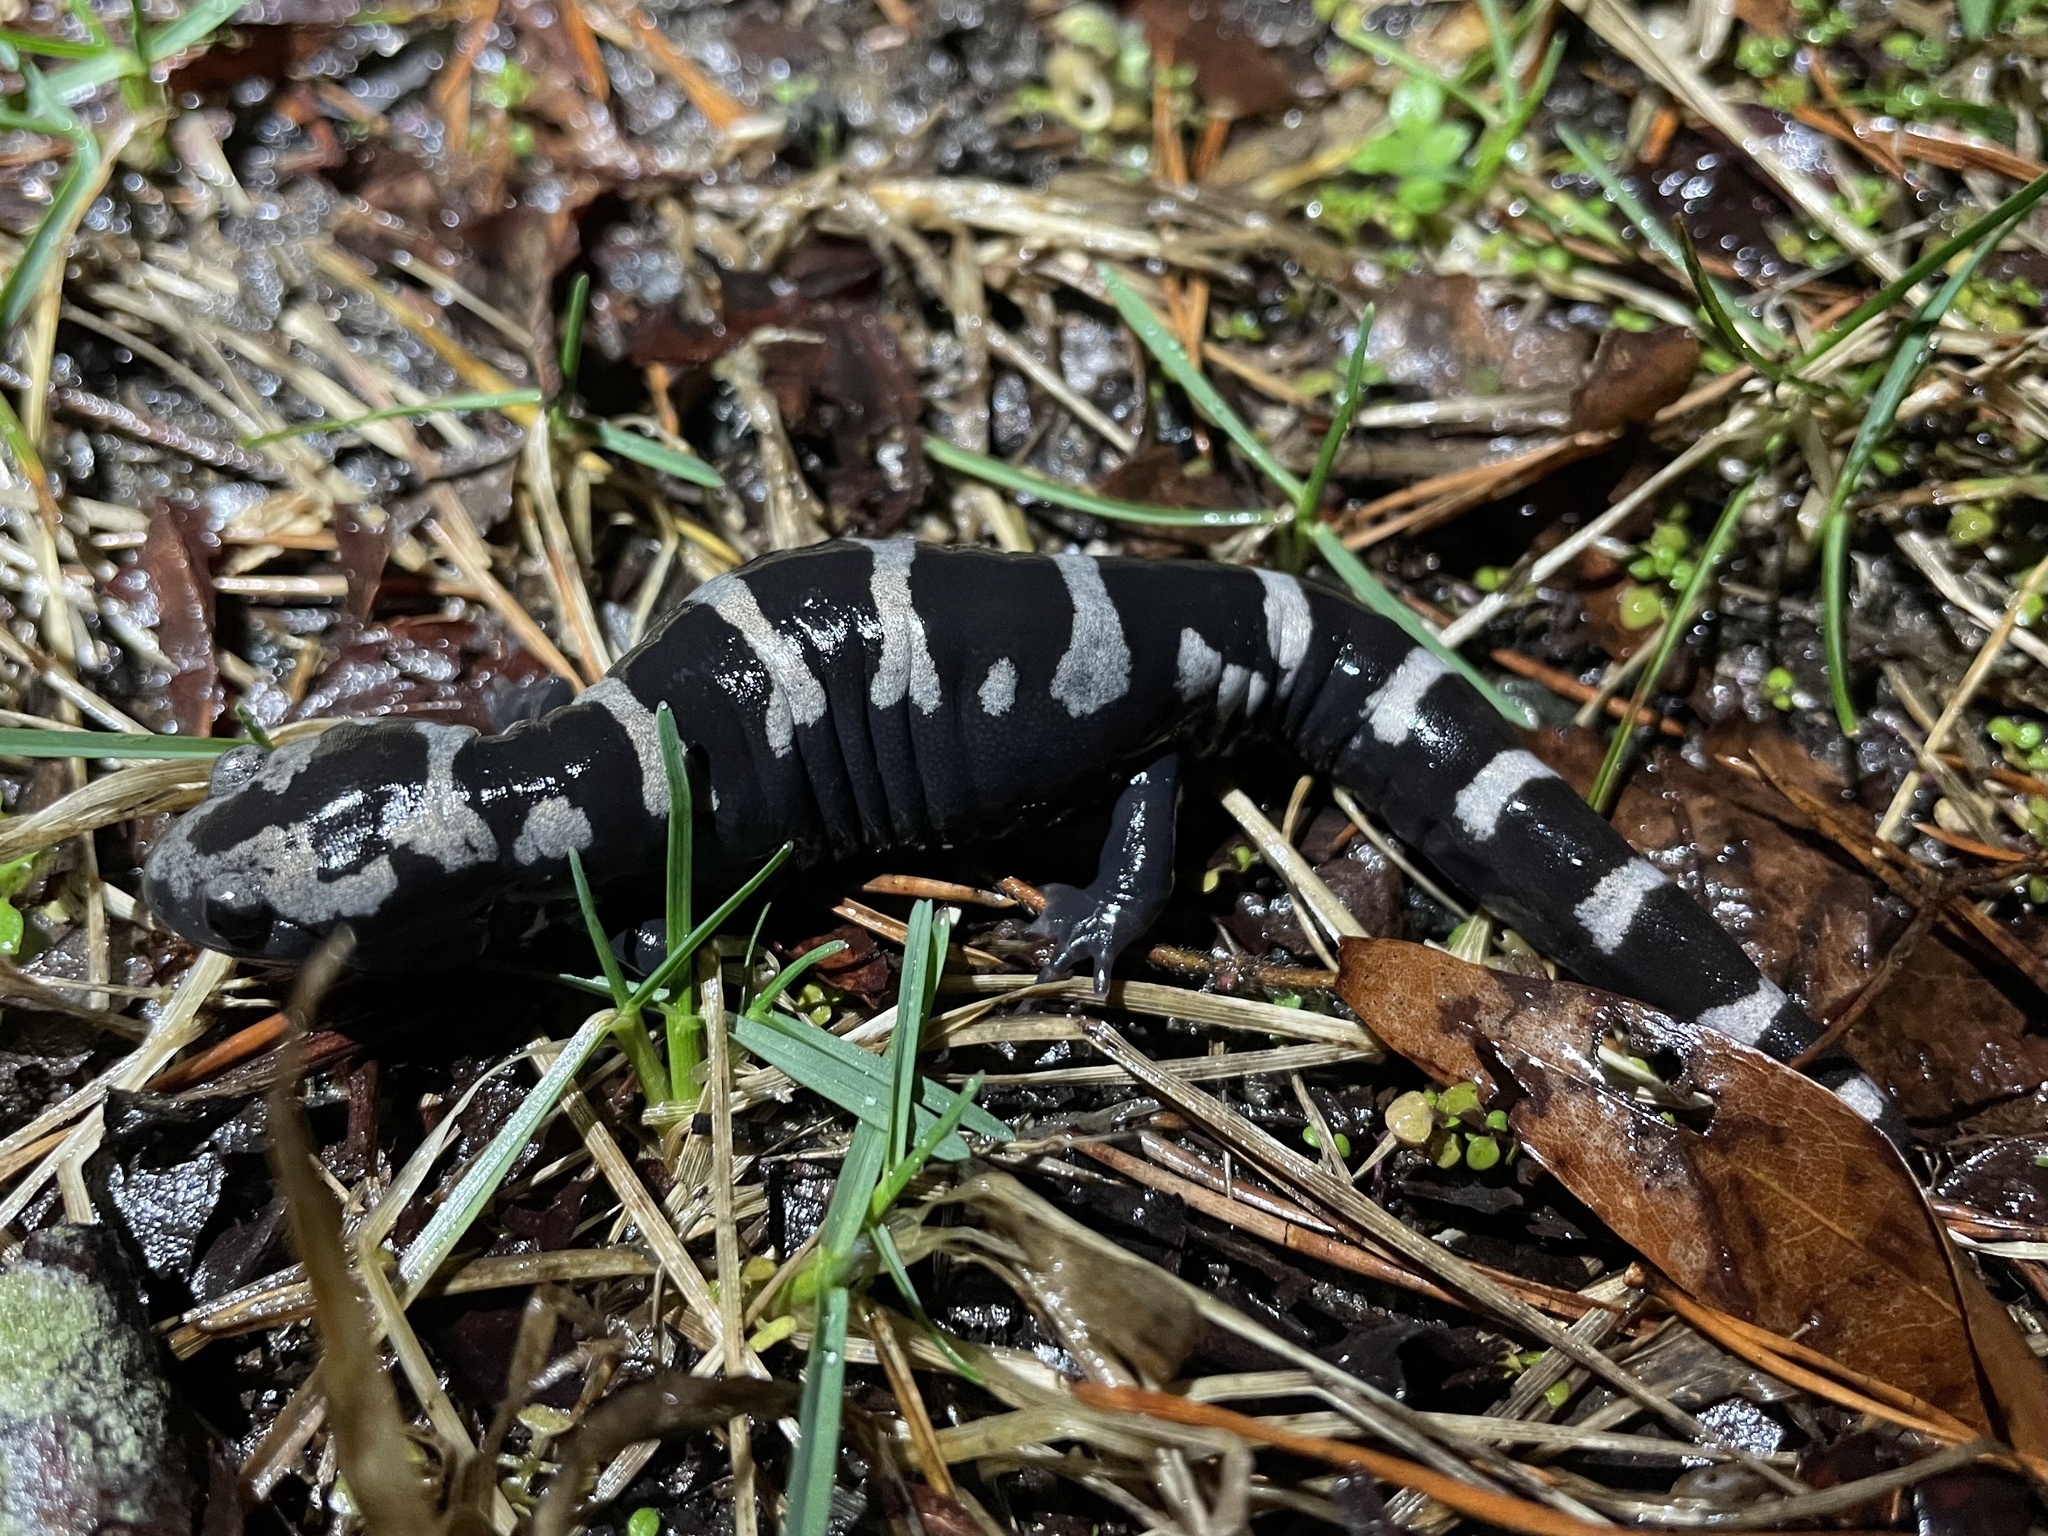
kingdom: Animalia
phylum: Chordata
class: Amphibia
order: Caudata
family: Ambystomatidae
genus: Ambystoma
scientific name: Ambystoma opacum
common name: Marbled salamander
